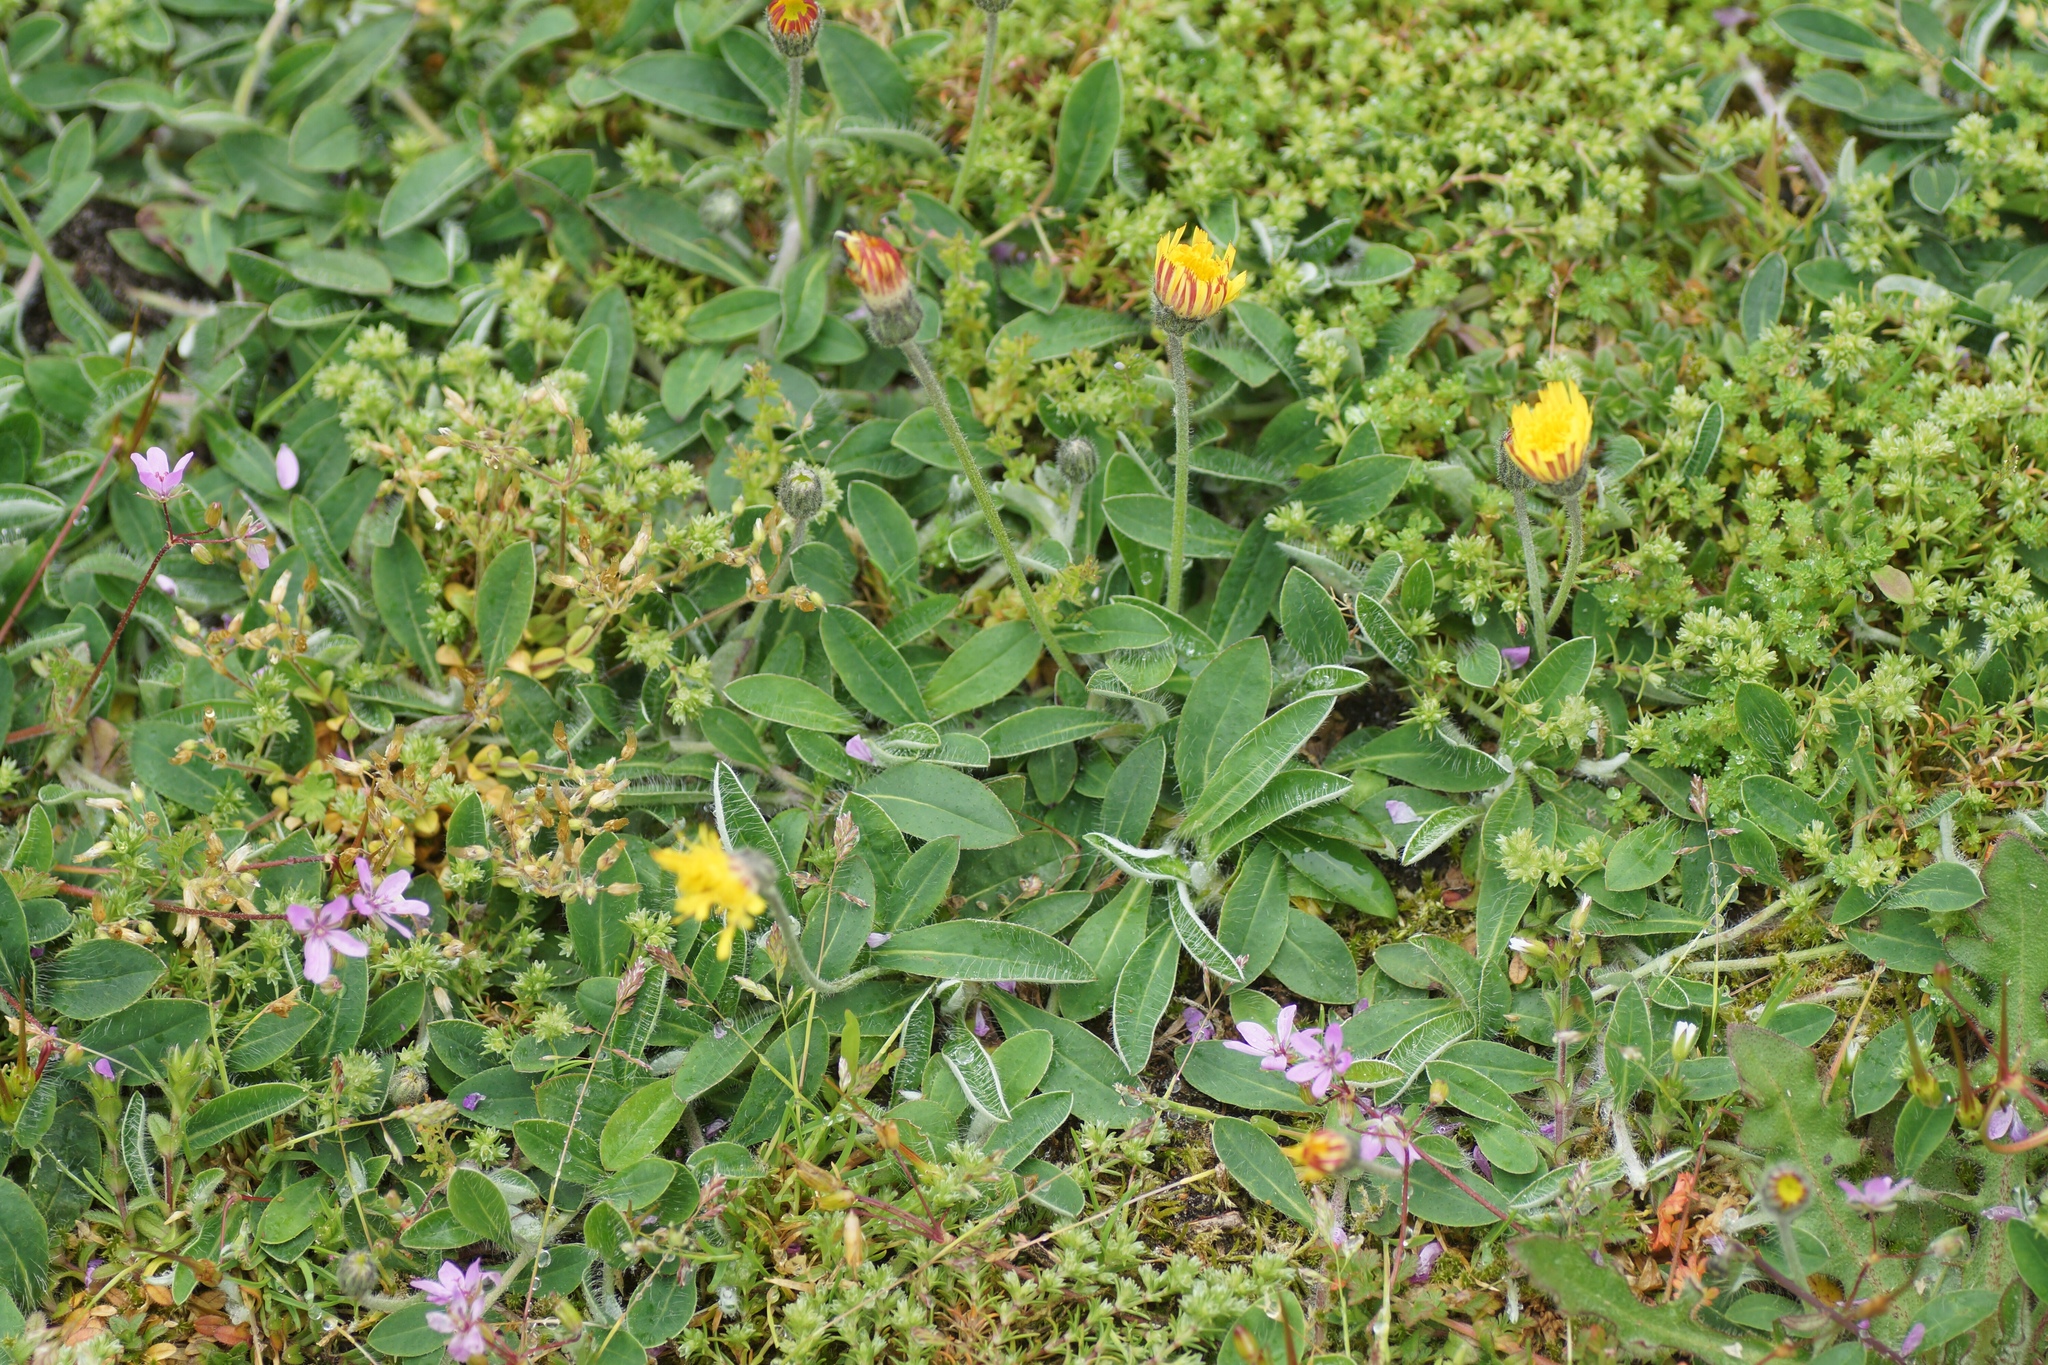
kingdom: Plantae
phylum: Tracheophyta
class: Magnoliopsida
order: Asterales
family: Asteraceae
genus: Pilosella
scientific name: Pilosella officinarum
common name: Mouse-ear hawkweed
